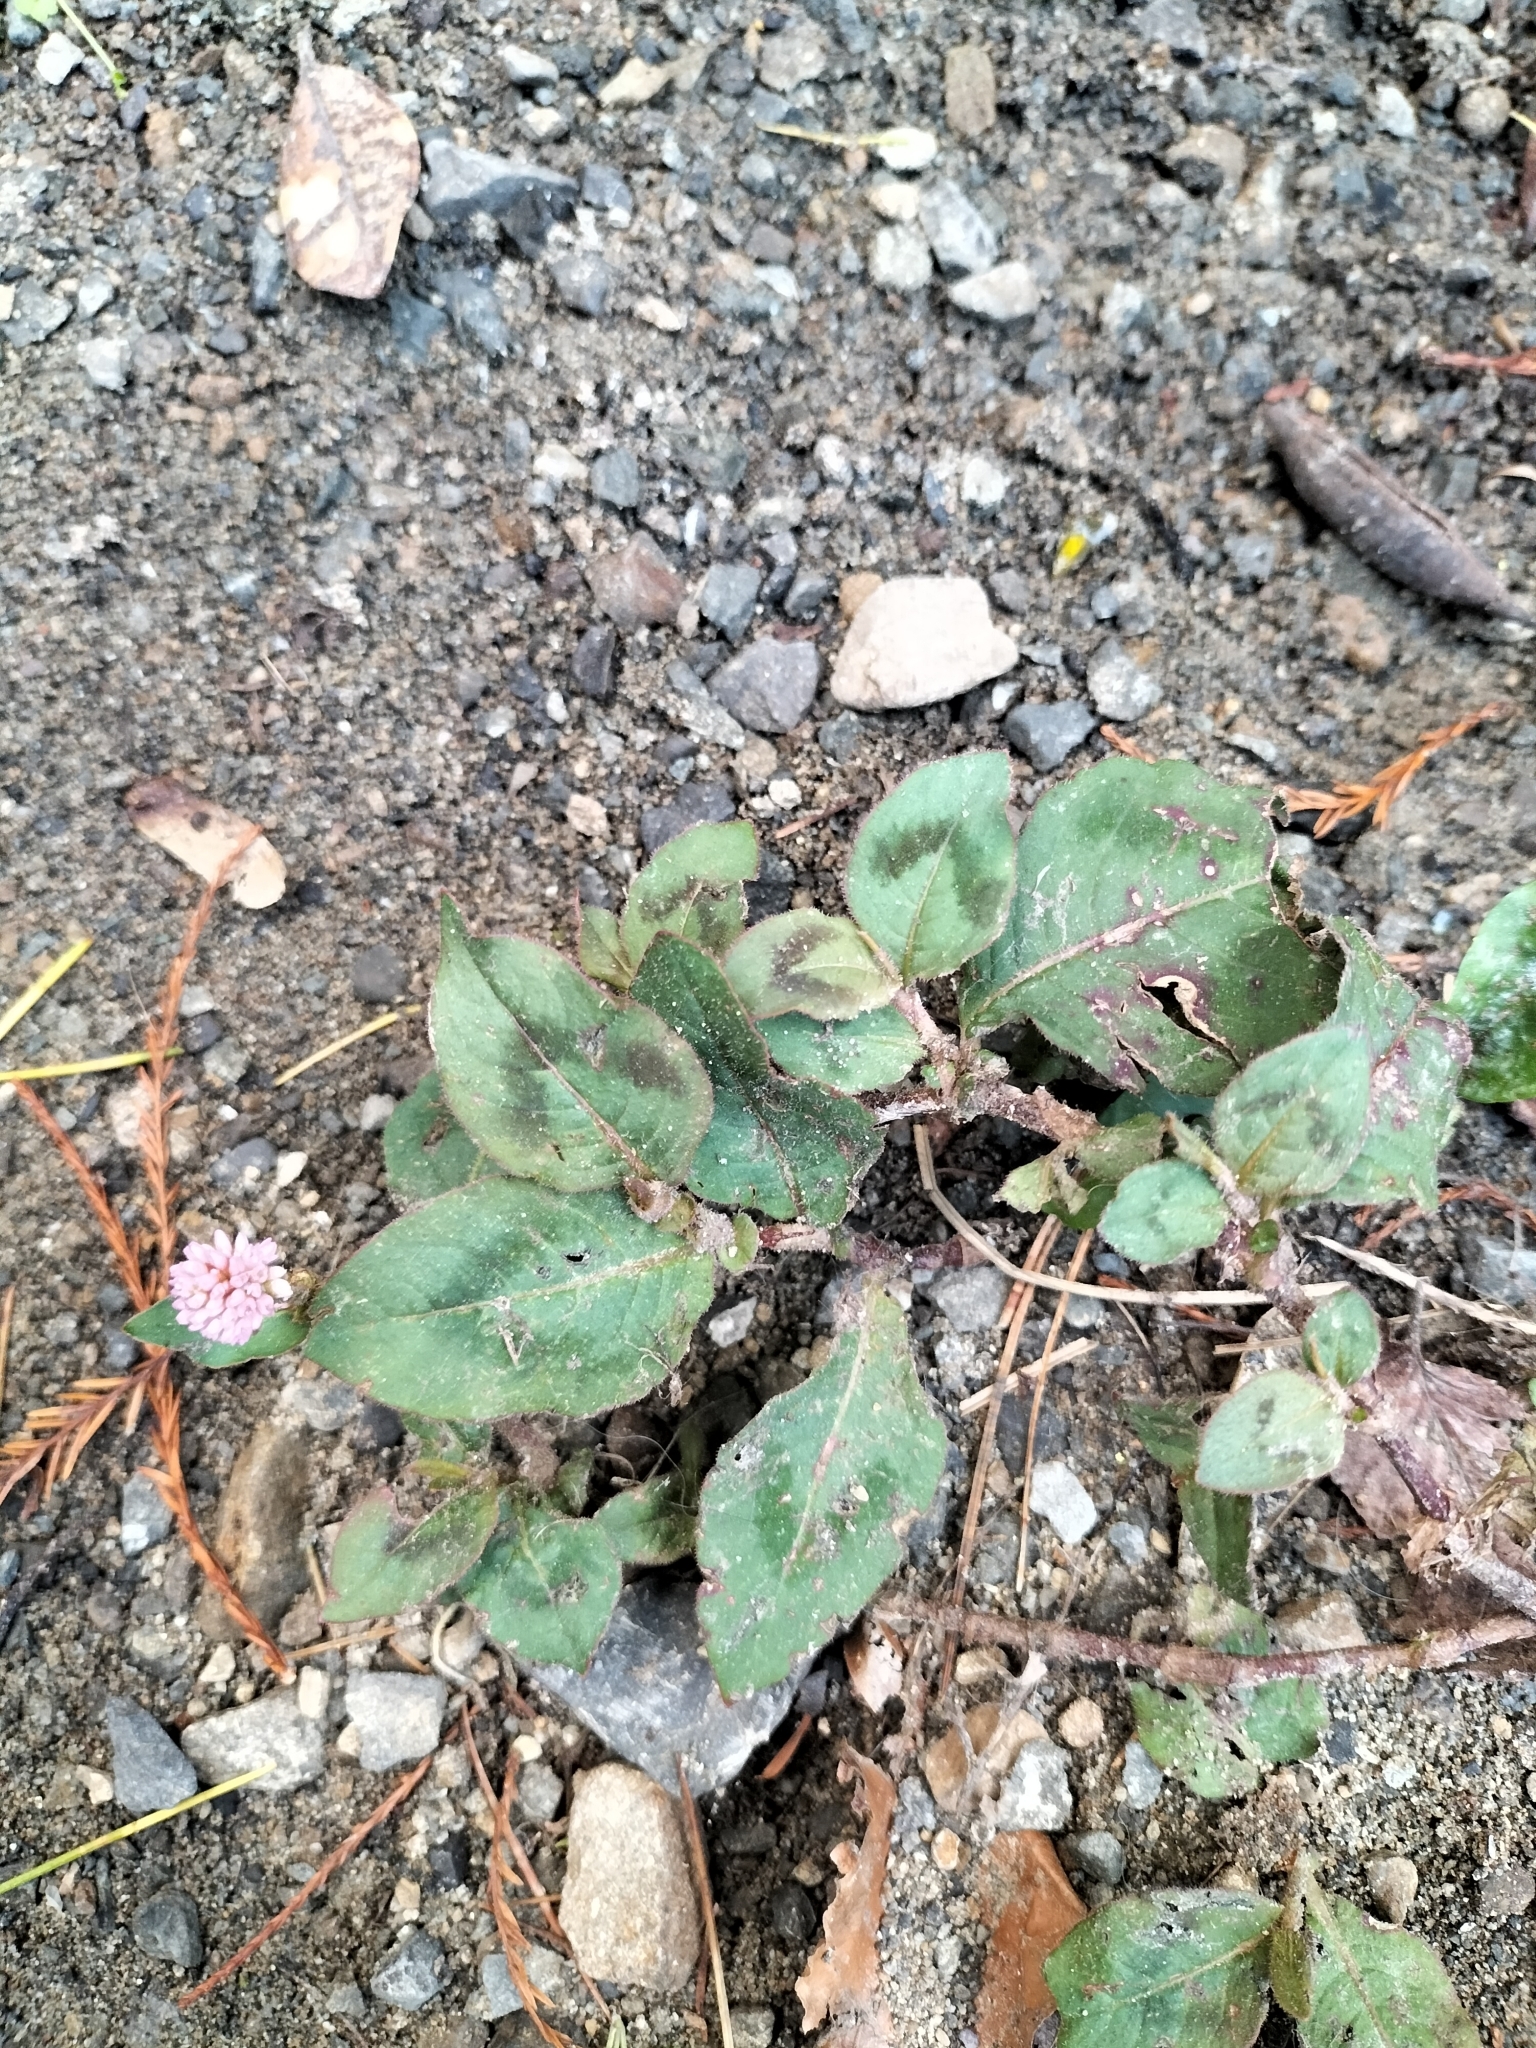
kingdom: Plantae
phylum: Tracheophyta
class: Magnoliopsida
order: Caryophyllales
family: Polygonaceae
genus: Persicaria
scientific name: Persicaria capitata
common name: Pinkhead smartweed
